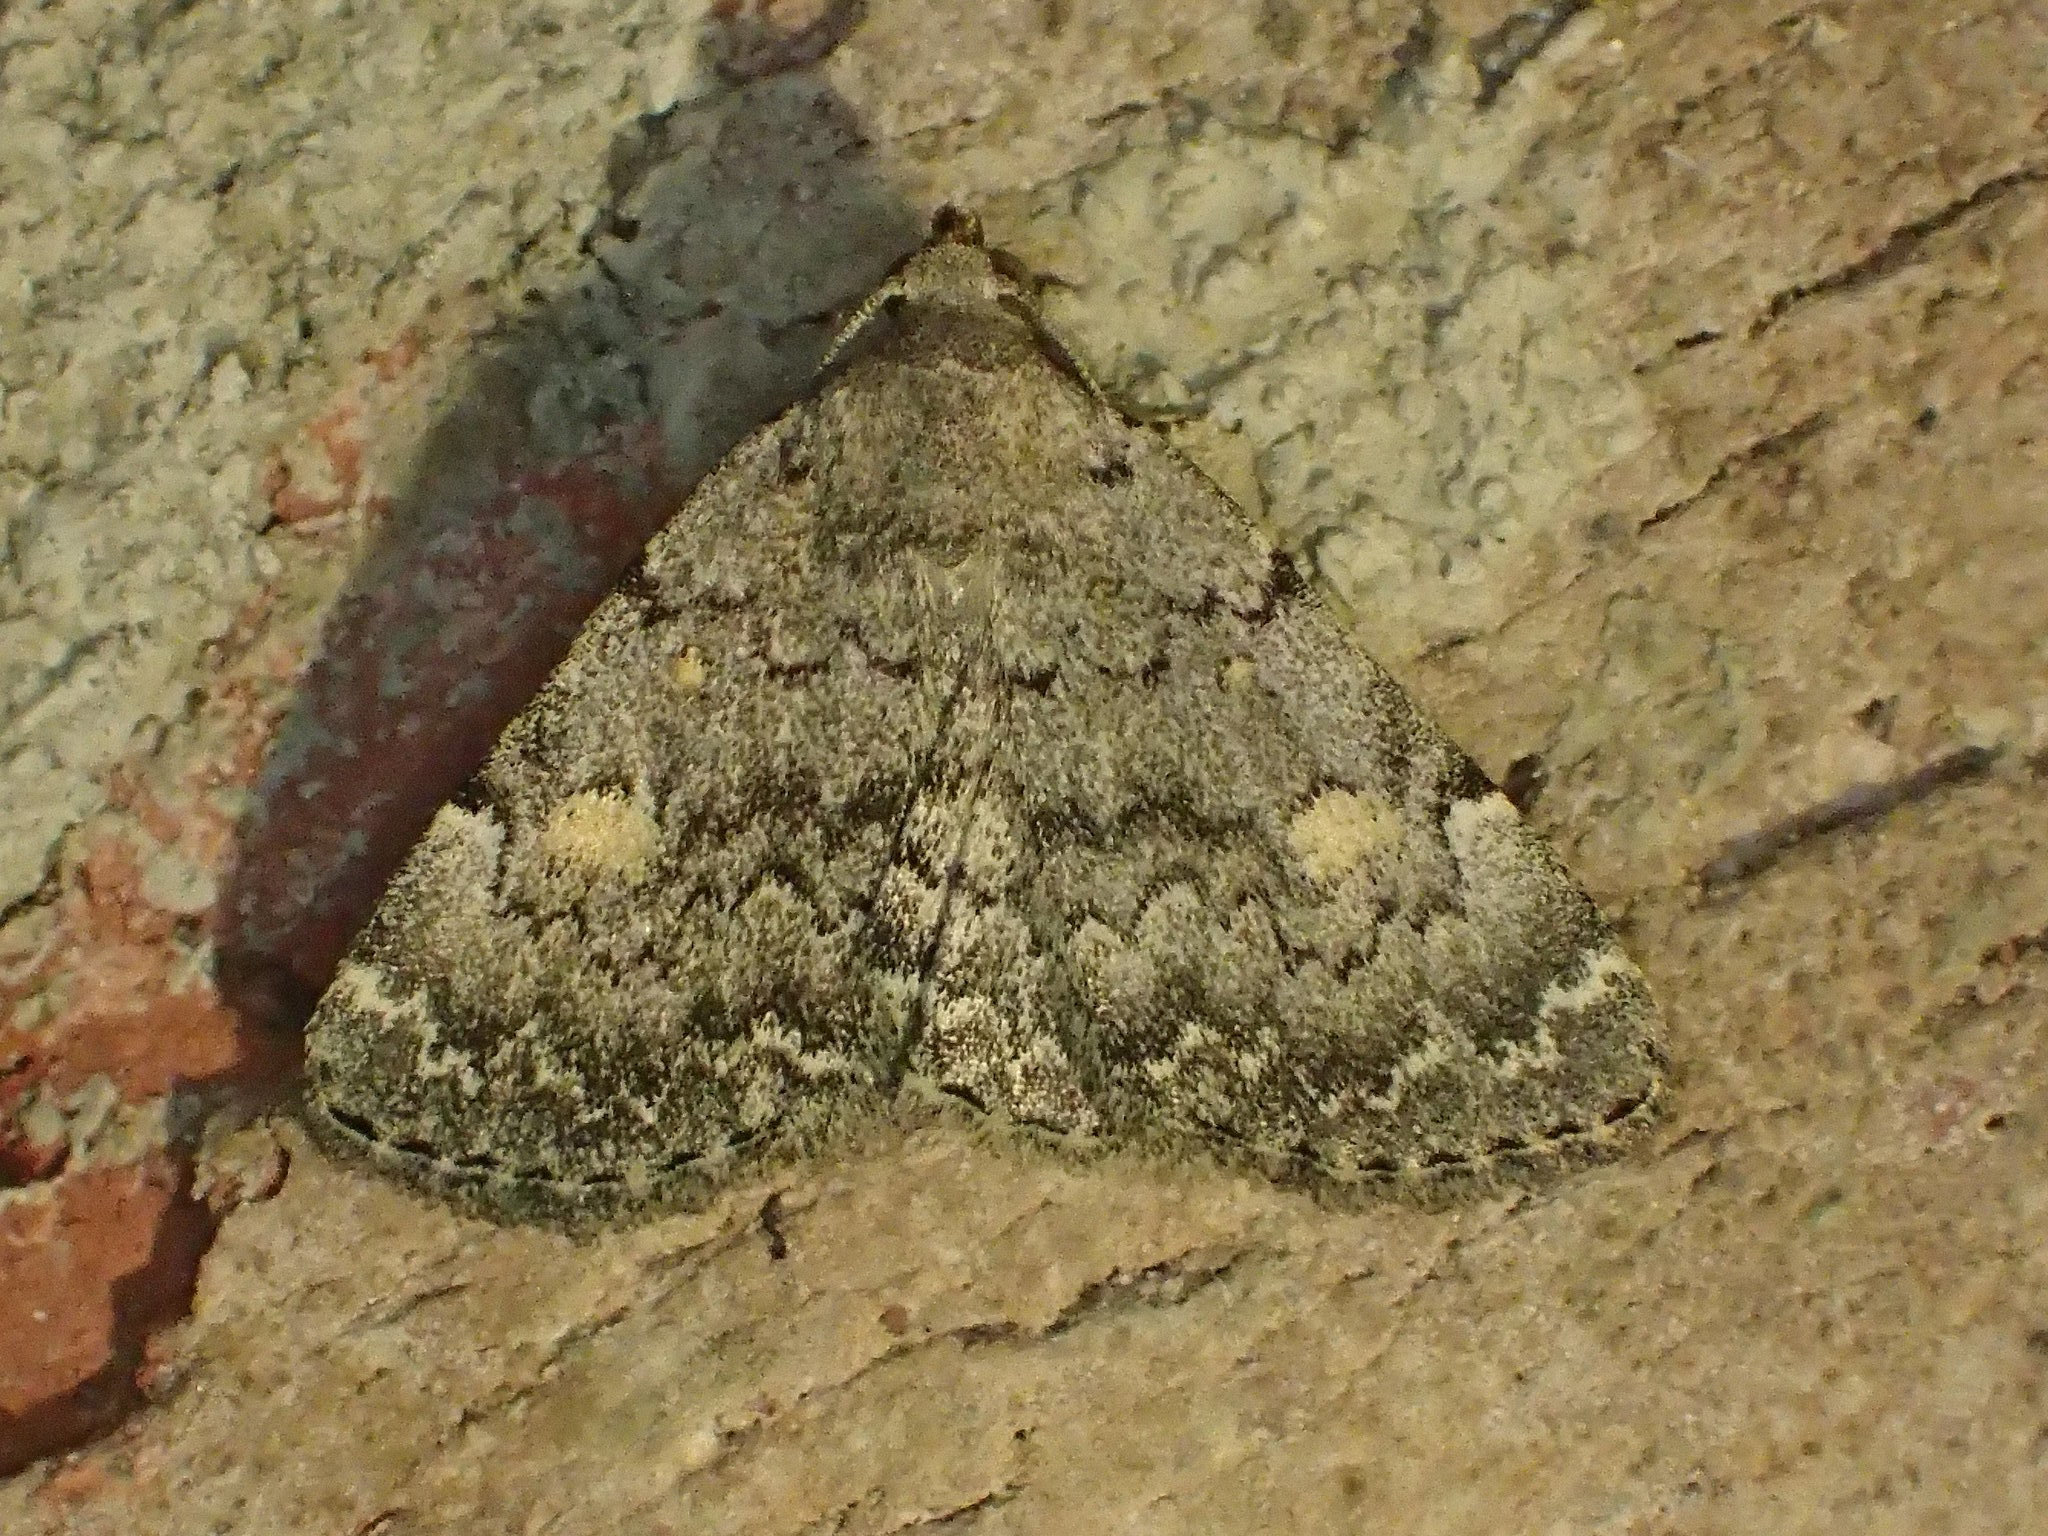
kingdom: Animalia
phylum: Arthropoda
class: Insecta
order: Lepidoptera
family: Erebidae
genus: Idia
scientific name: Idia aemula
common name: Common idia moth
